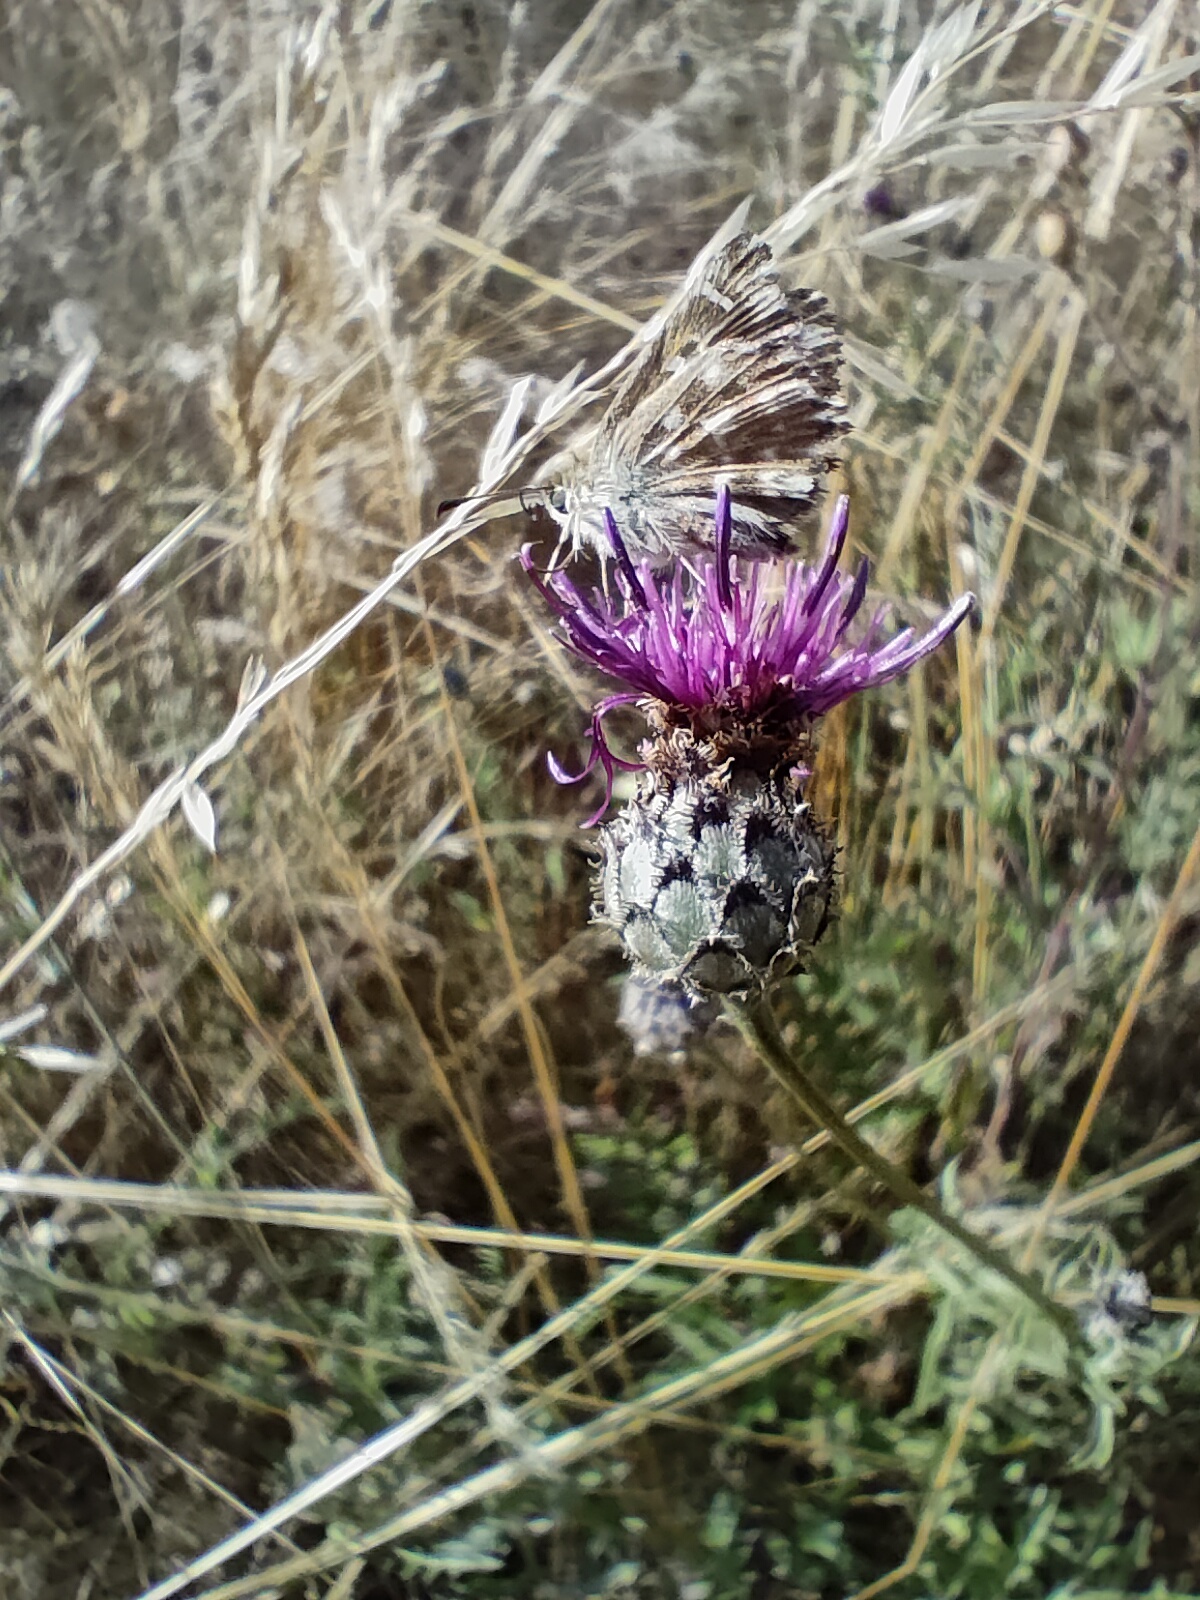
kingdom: Animalia
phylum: Arthropoda
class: Insecta
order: Lepidoptera
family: Hesperiidae
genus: Carcharodus
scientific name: Carcharodus alceae
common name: Mallow skipper
